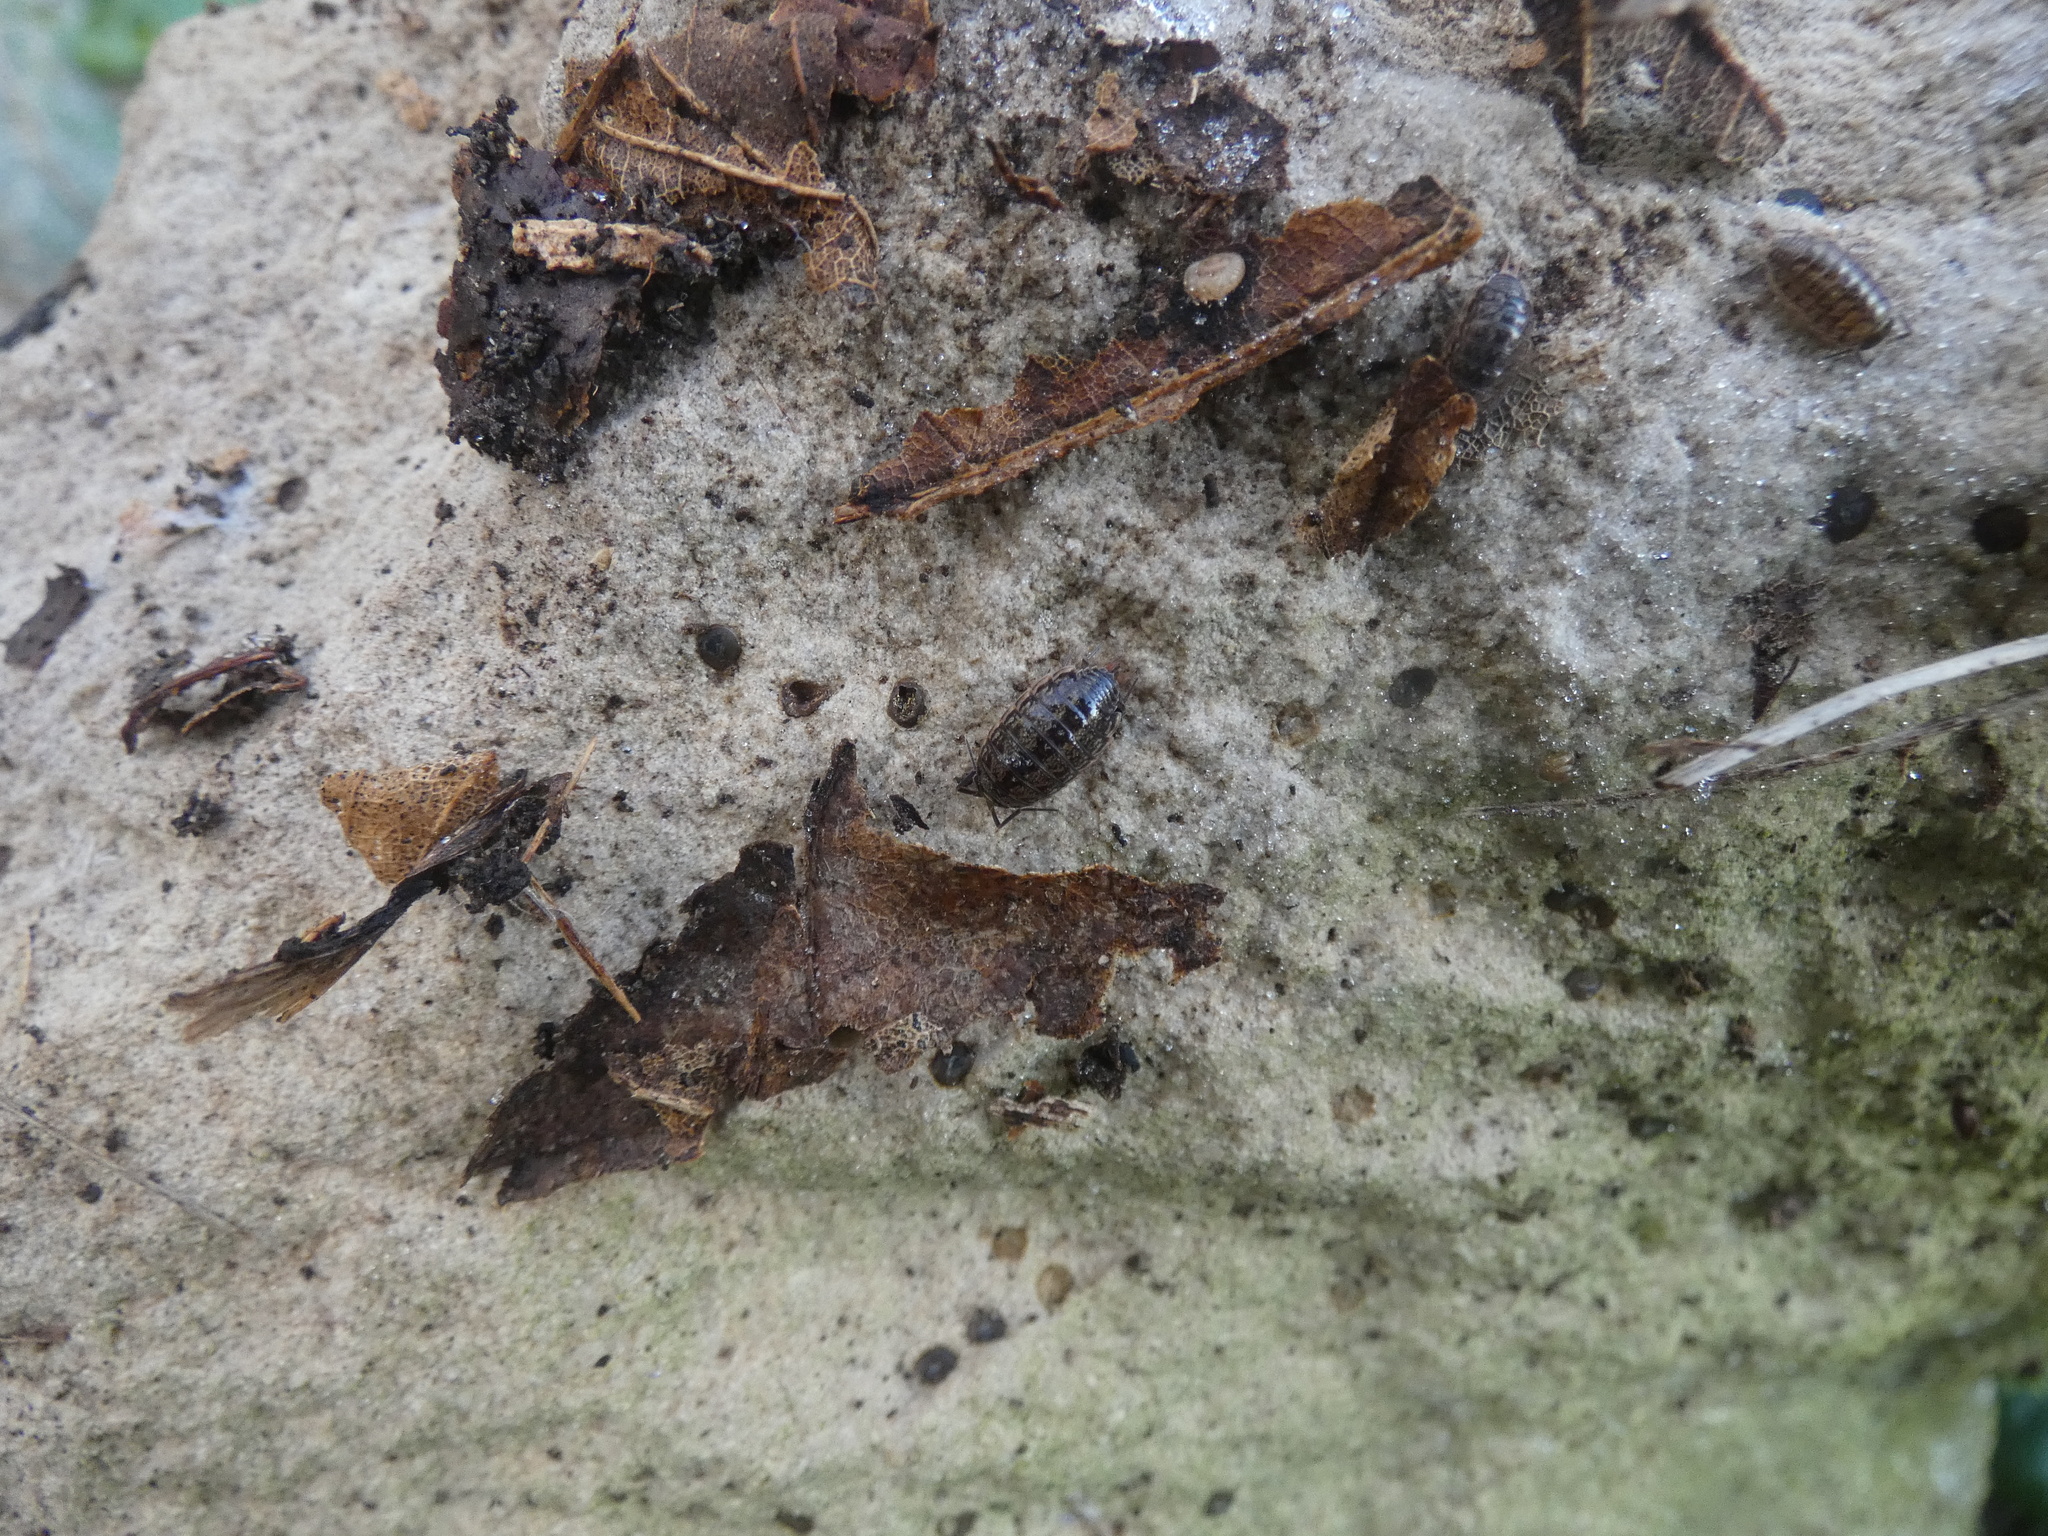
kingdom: Animalia
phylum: Arthropoda
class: Malacostraca
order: Isopoda
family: Philosciidae
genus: Philoscia
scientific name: Philoscia muscorum
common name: Common striped woodlouse
